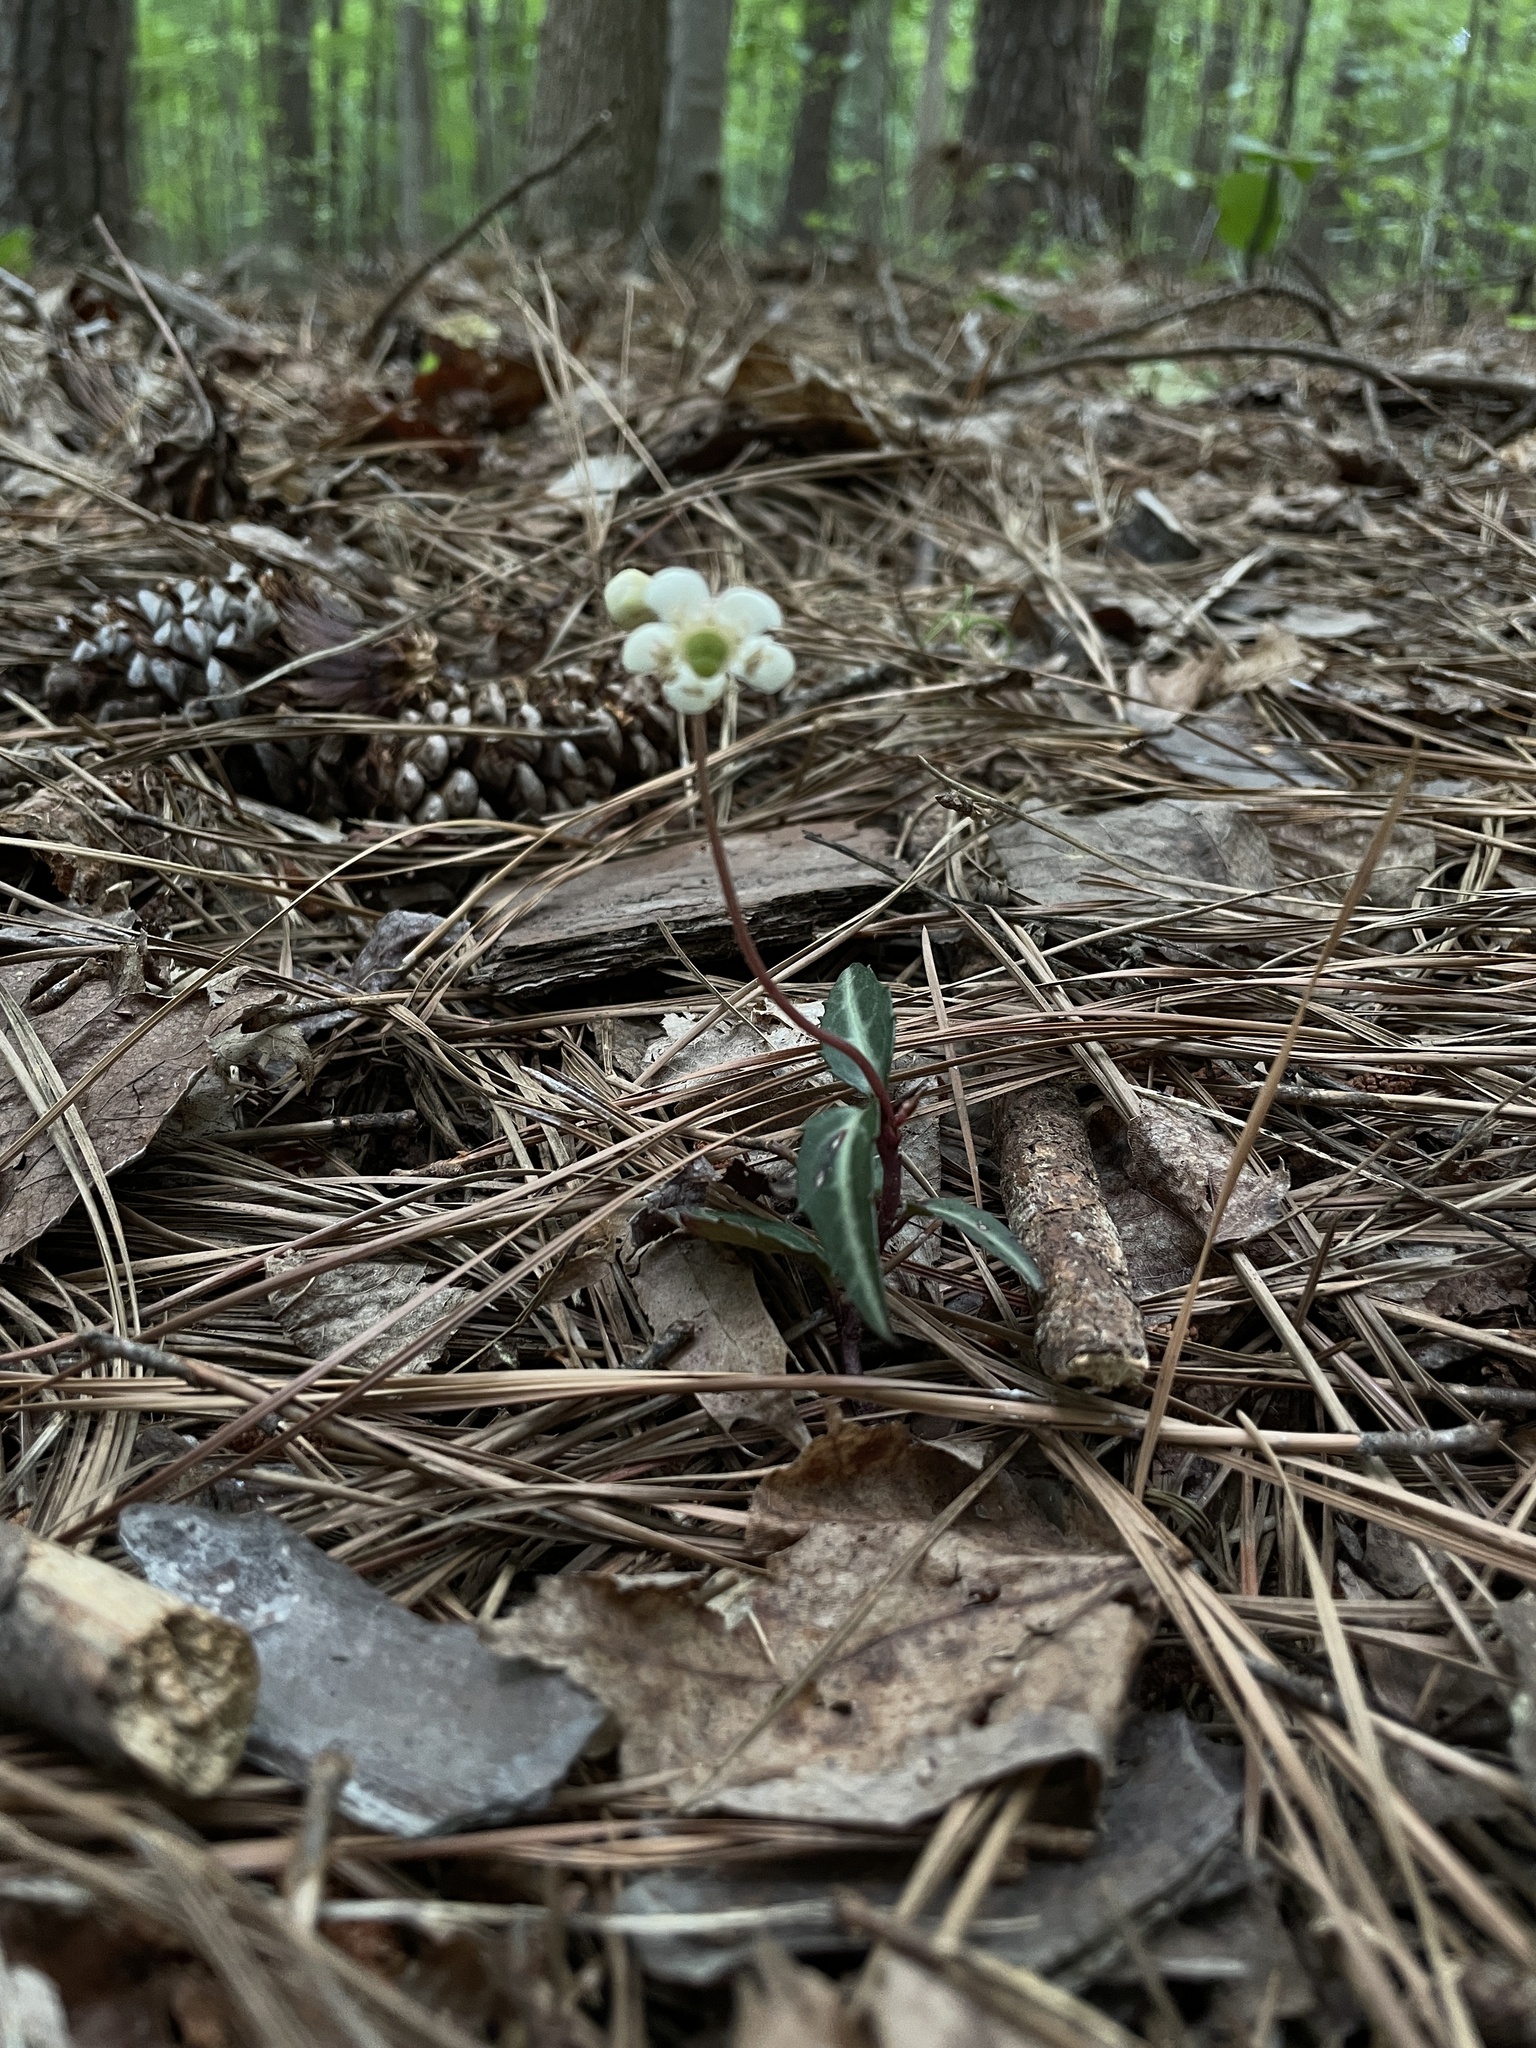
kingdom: Plantae
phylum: Tracheophyta
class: Magnoliopsida
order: Ericales
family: Ericaceae
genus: Chimaphila
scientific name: Chimaphila maculata
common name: Spotted pipsissewa
